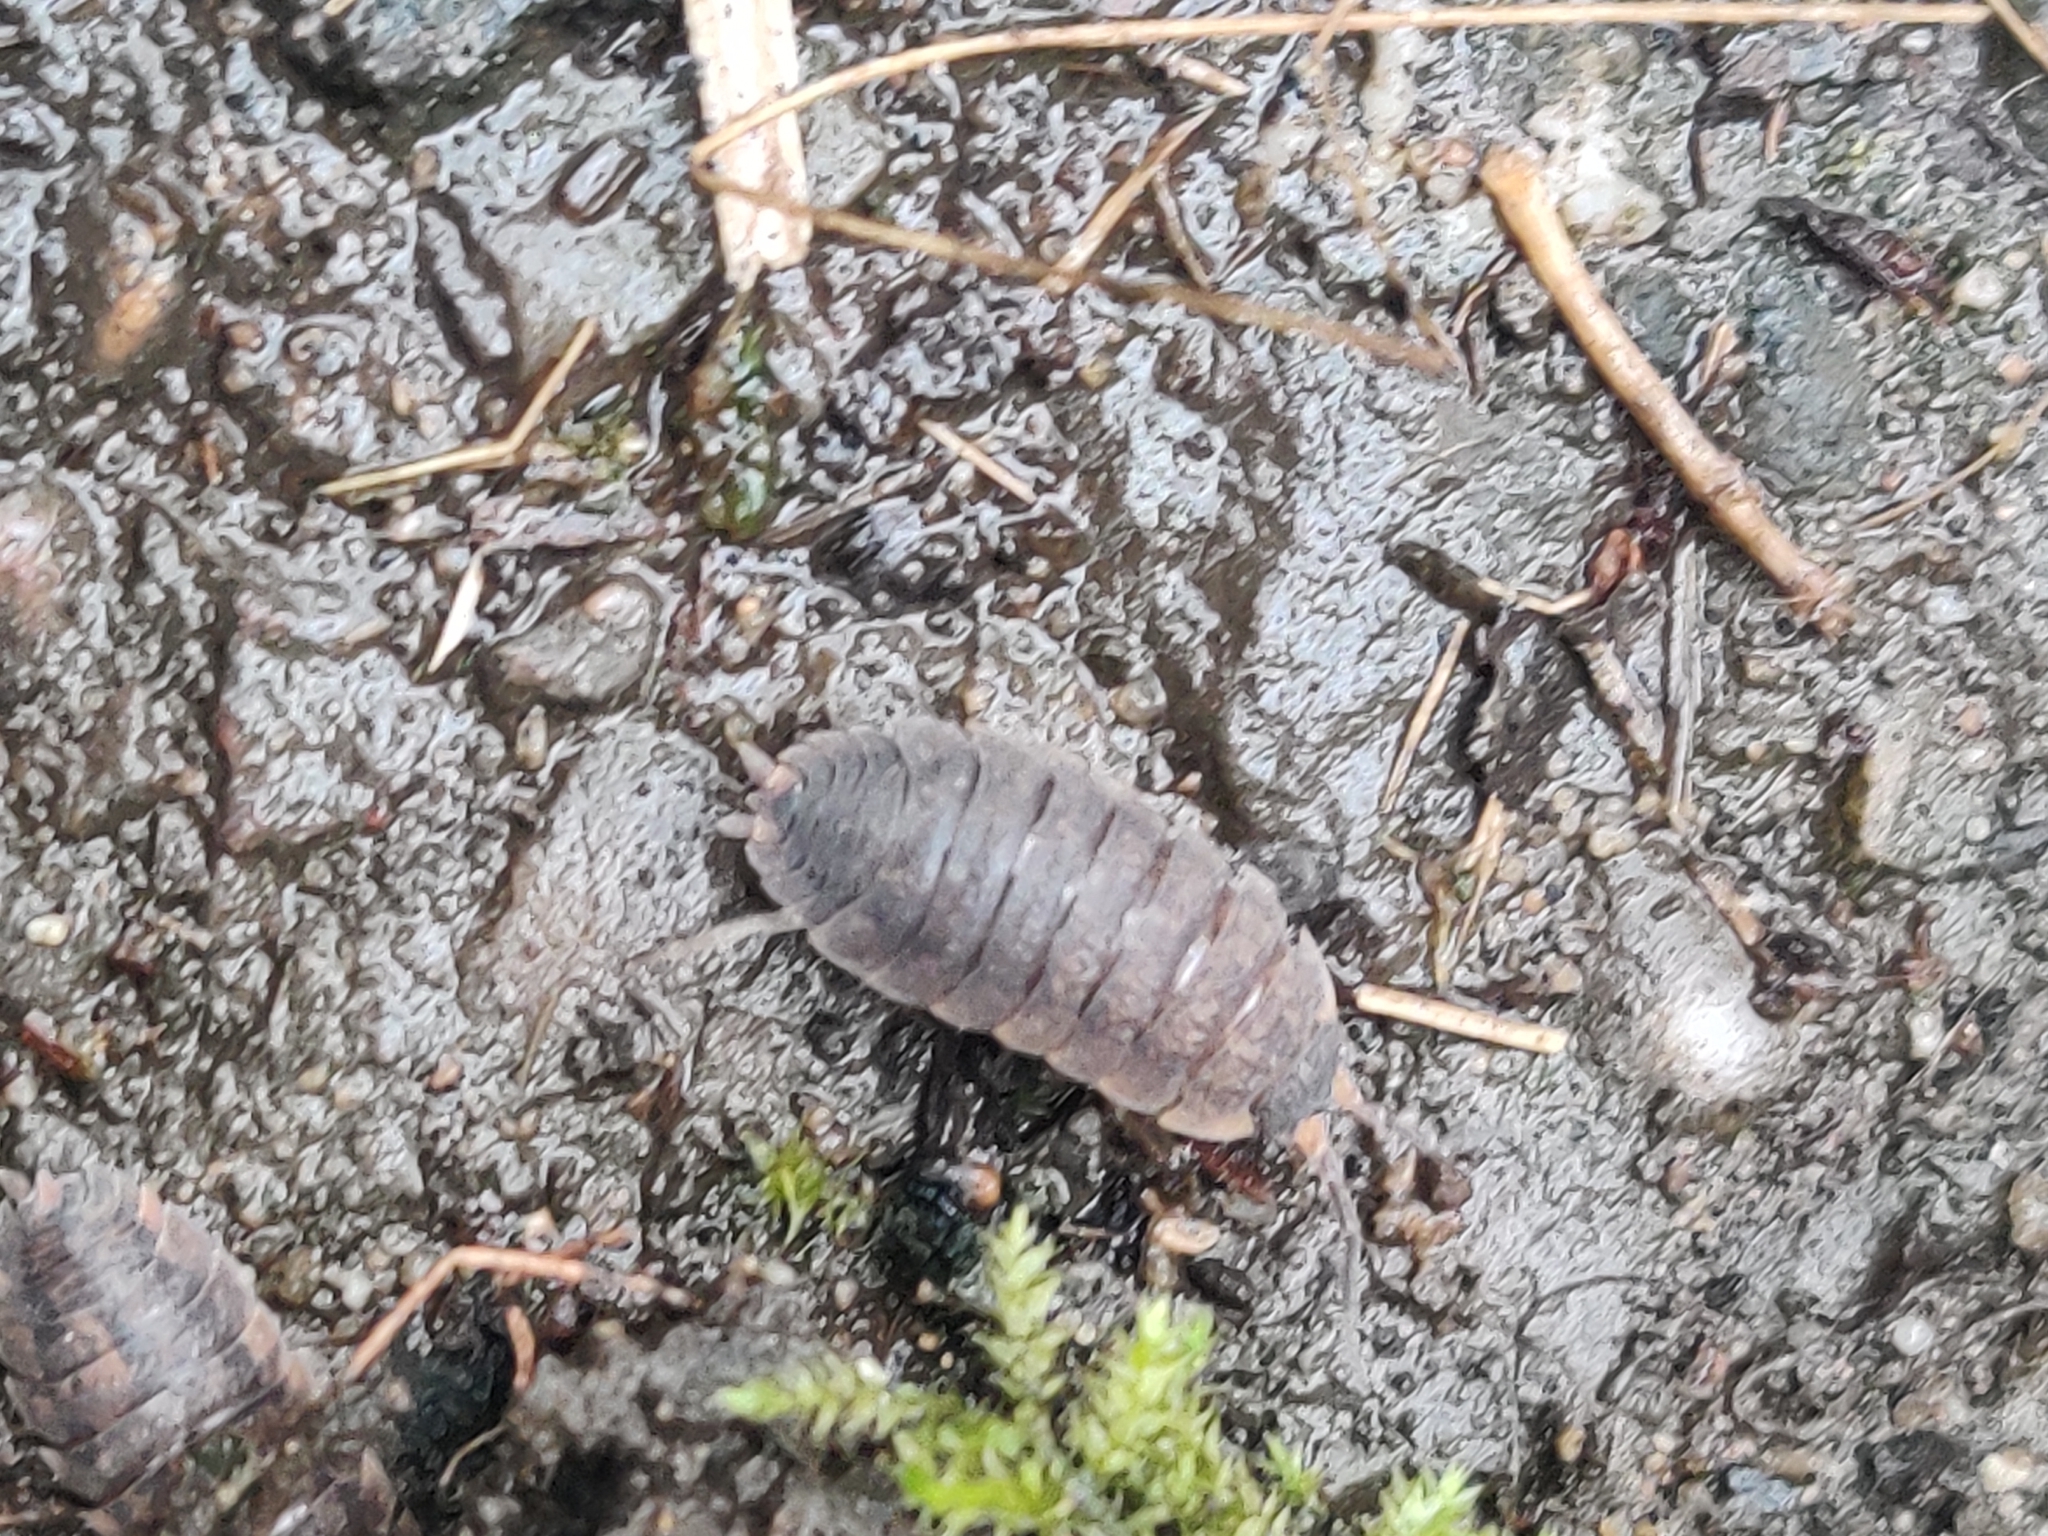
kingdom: Animalia
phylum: Arthropoda
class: Malacostraca
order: Isopoda
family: Porcellionidae
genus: Porcellio
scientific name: Porcellio scaber
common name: Common rough woodlouse
